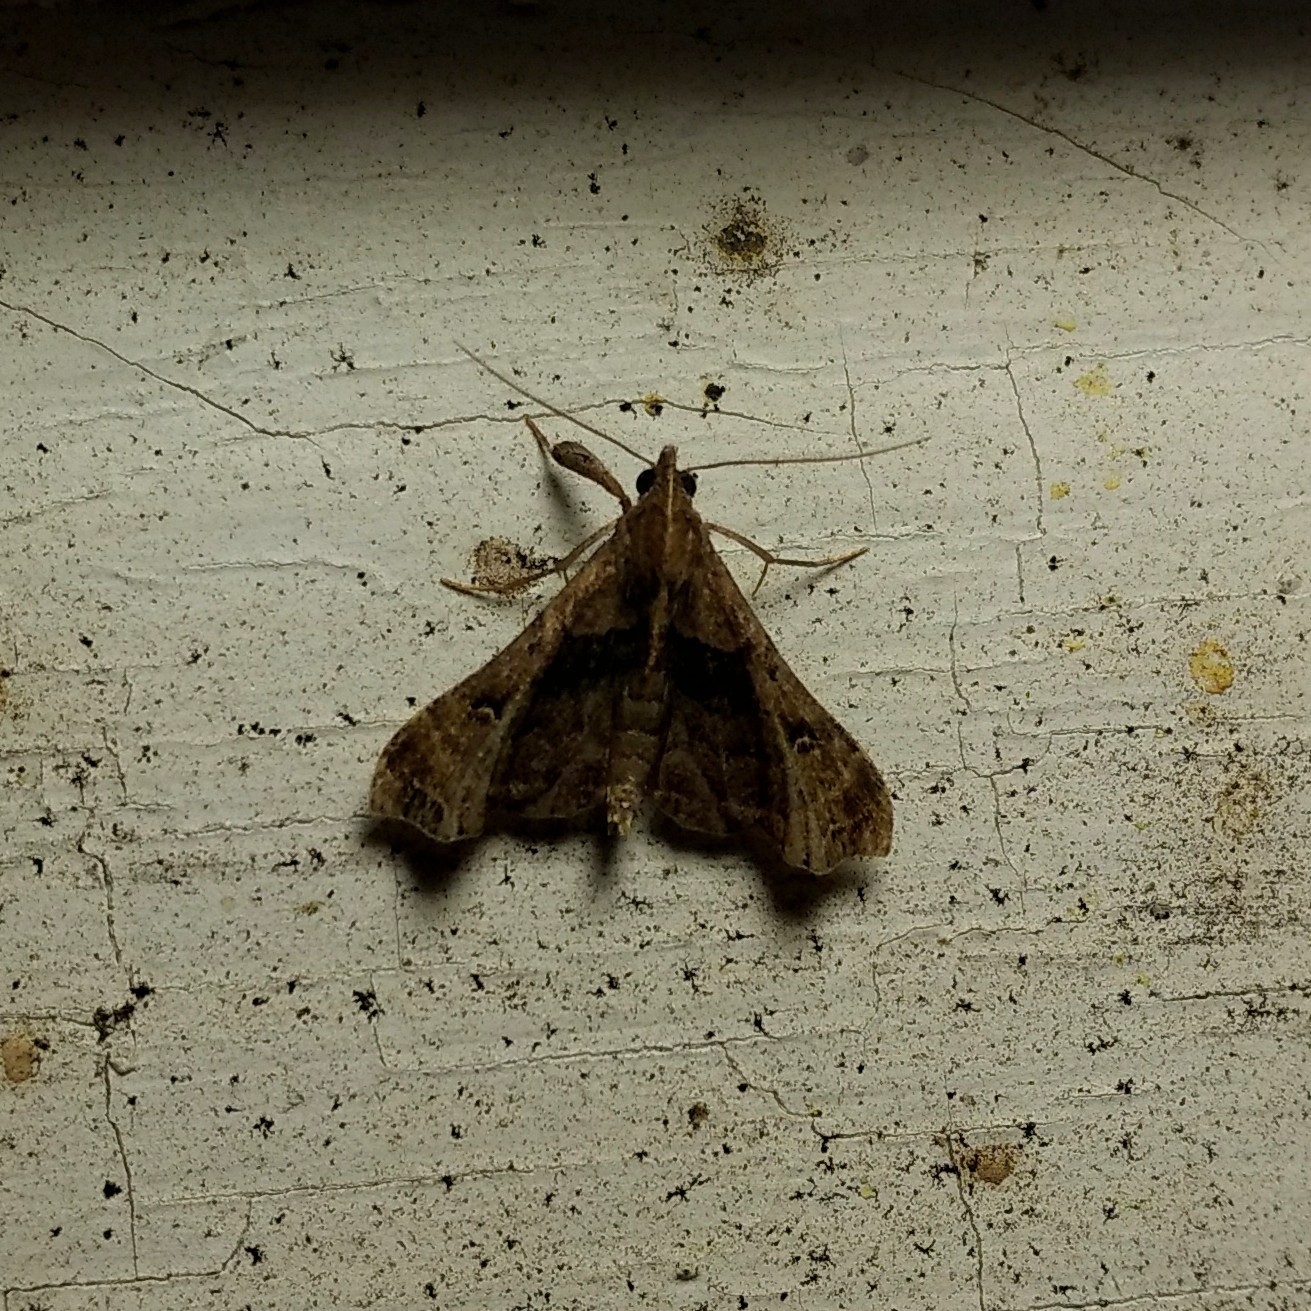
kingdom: Animalia
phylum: Arthropoda
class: Insecta
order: Lepidoptera
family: Erebidae
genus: Palthis
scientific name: Palthis asopialis
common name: Faint-spotted palthis moth
